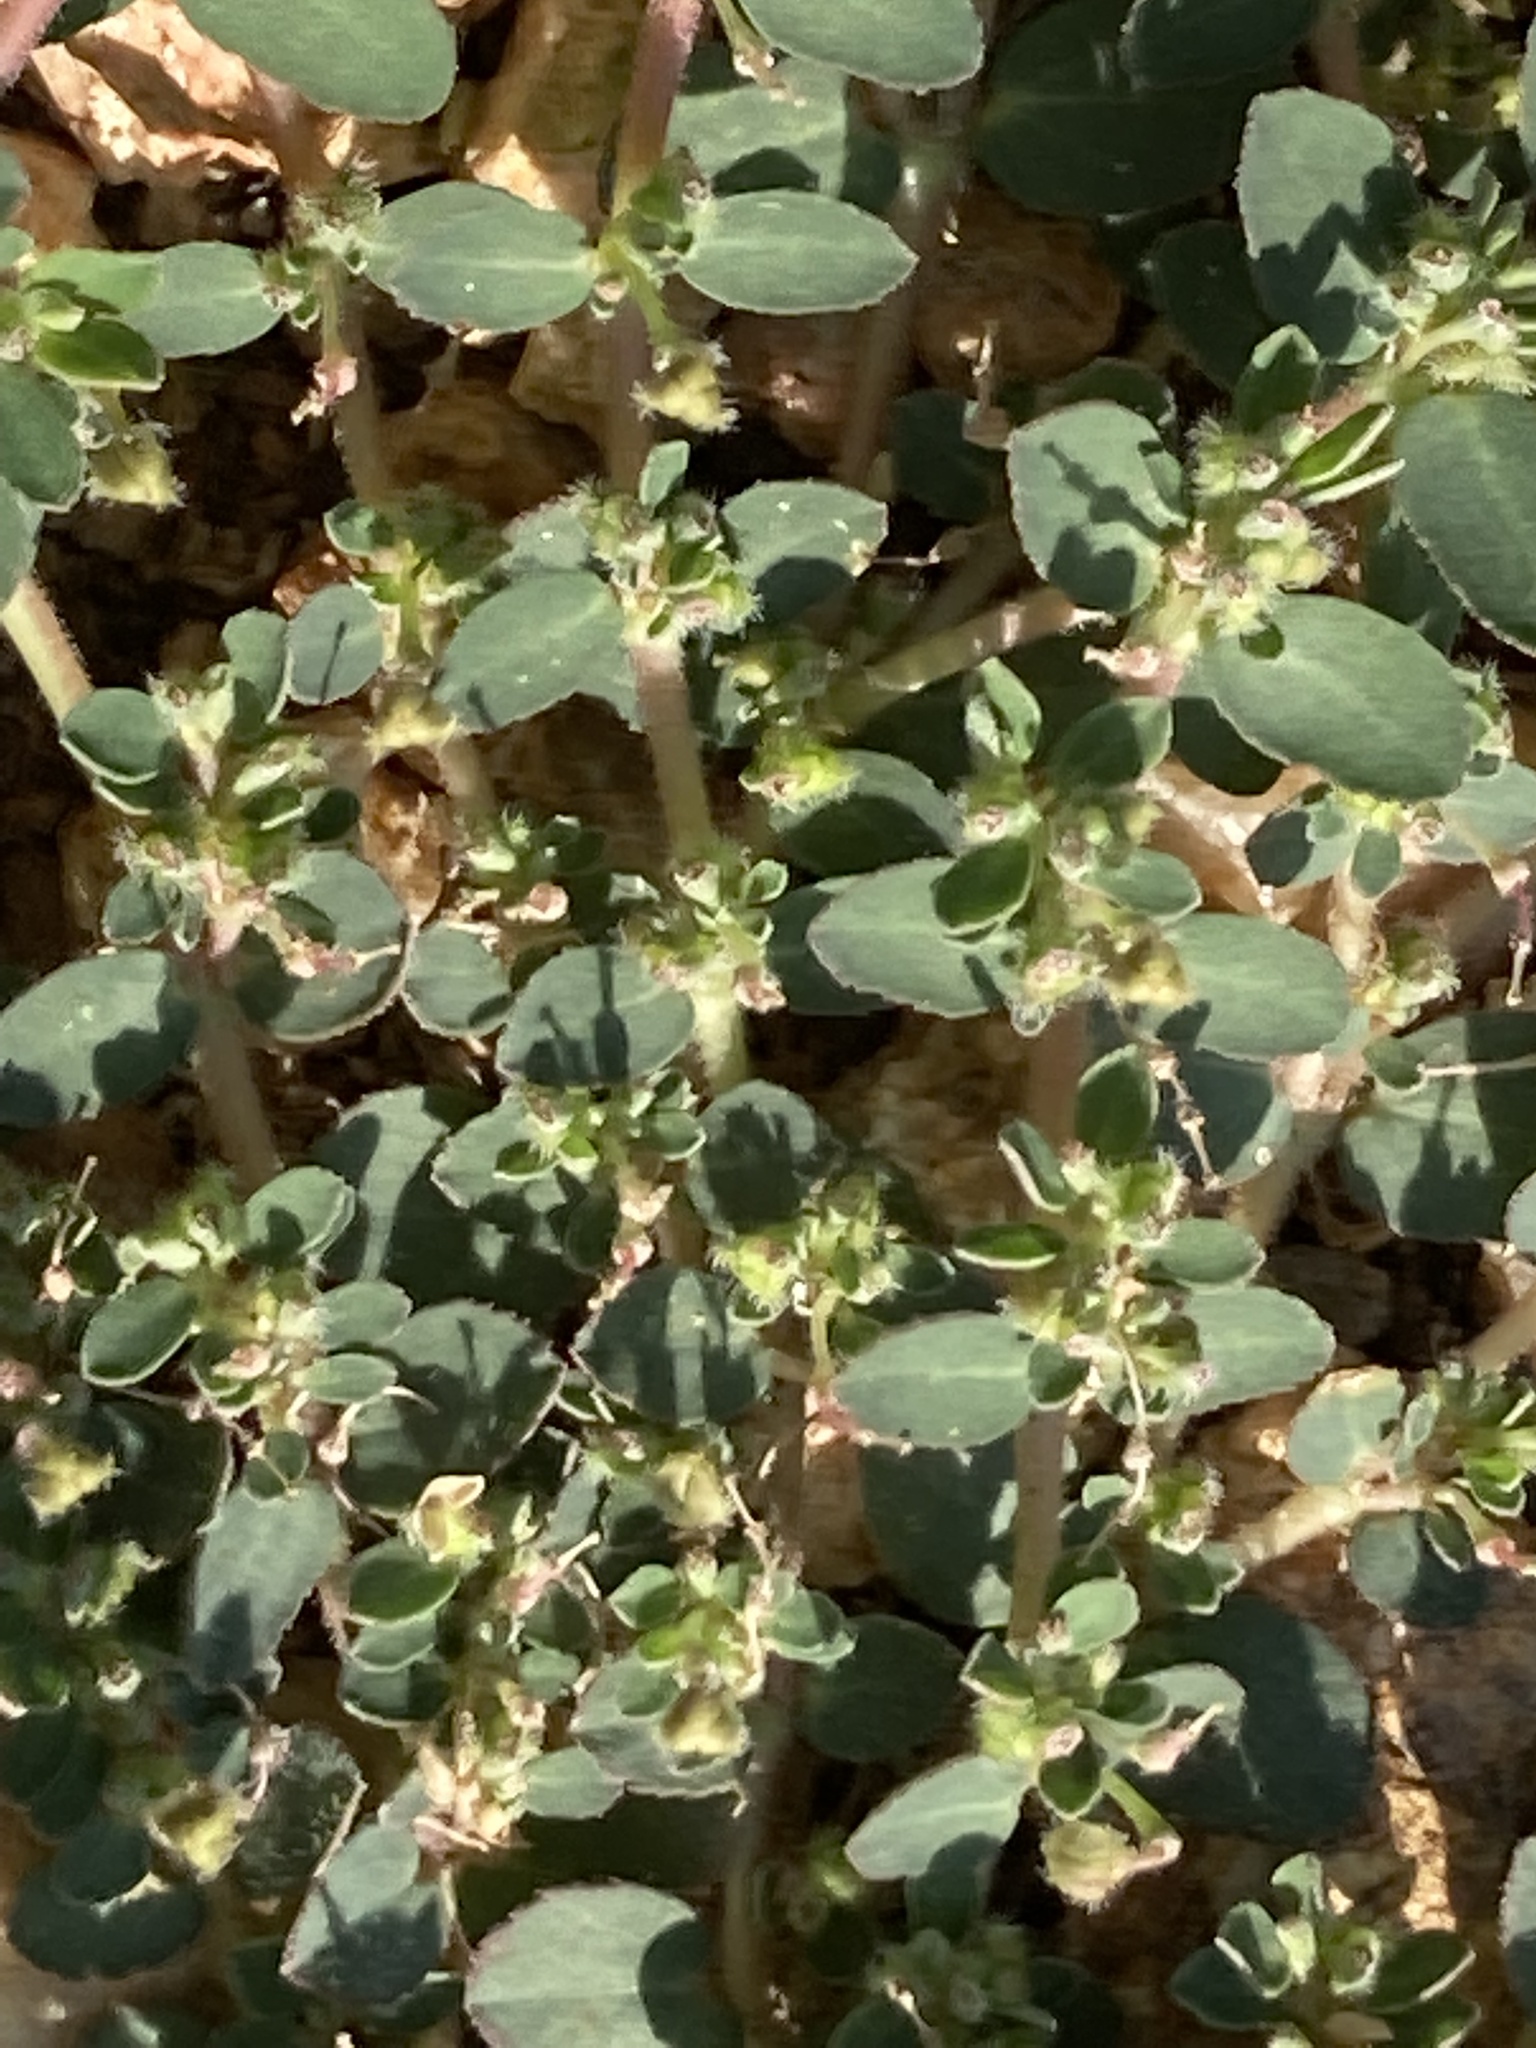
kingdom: Plantae
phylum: Tracheophyta
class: Magnoliopsida
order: Malpighiales
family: Euphorbiaceae
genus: Euphorbia
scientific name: Euphorbia prostrata
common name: Prostrate sandmat
